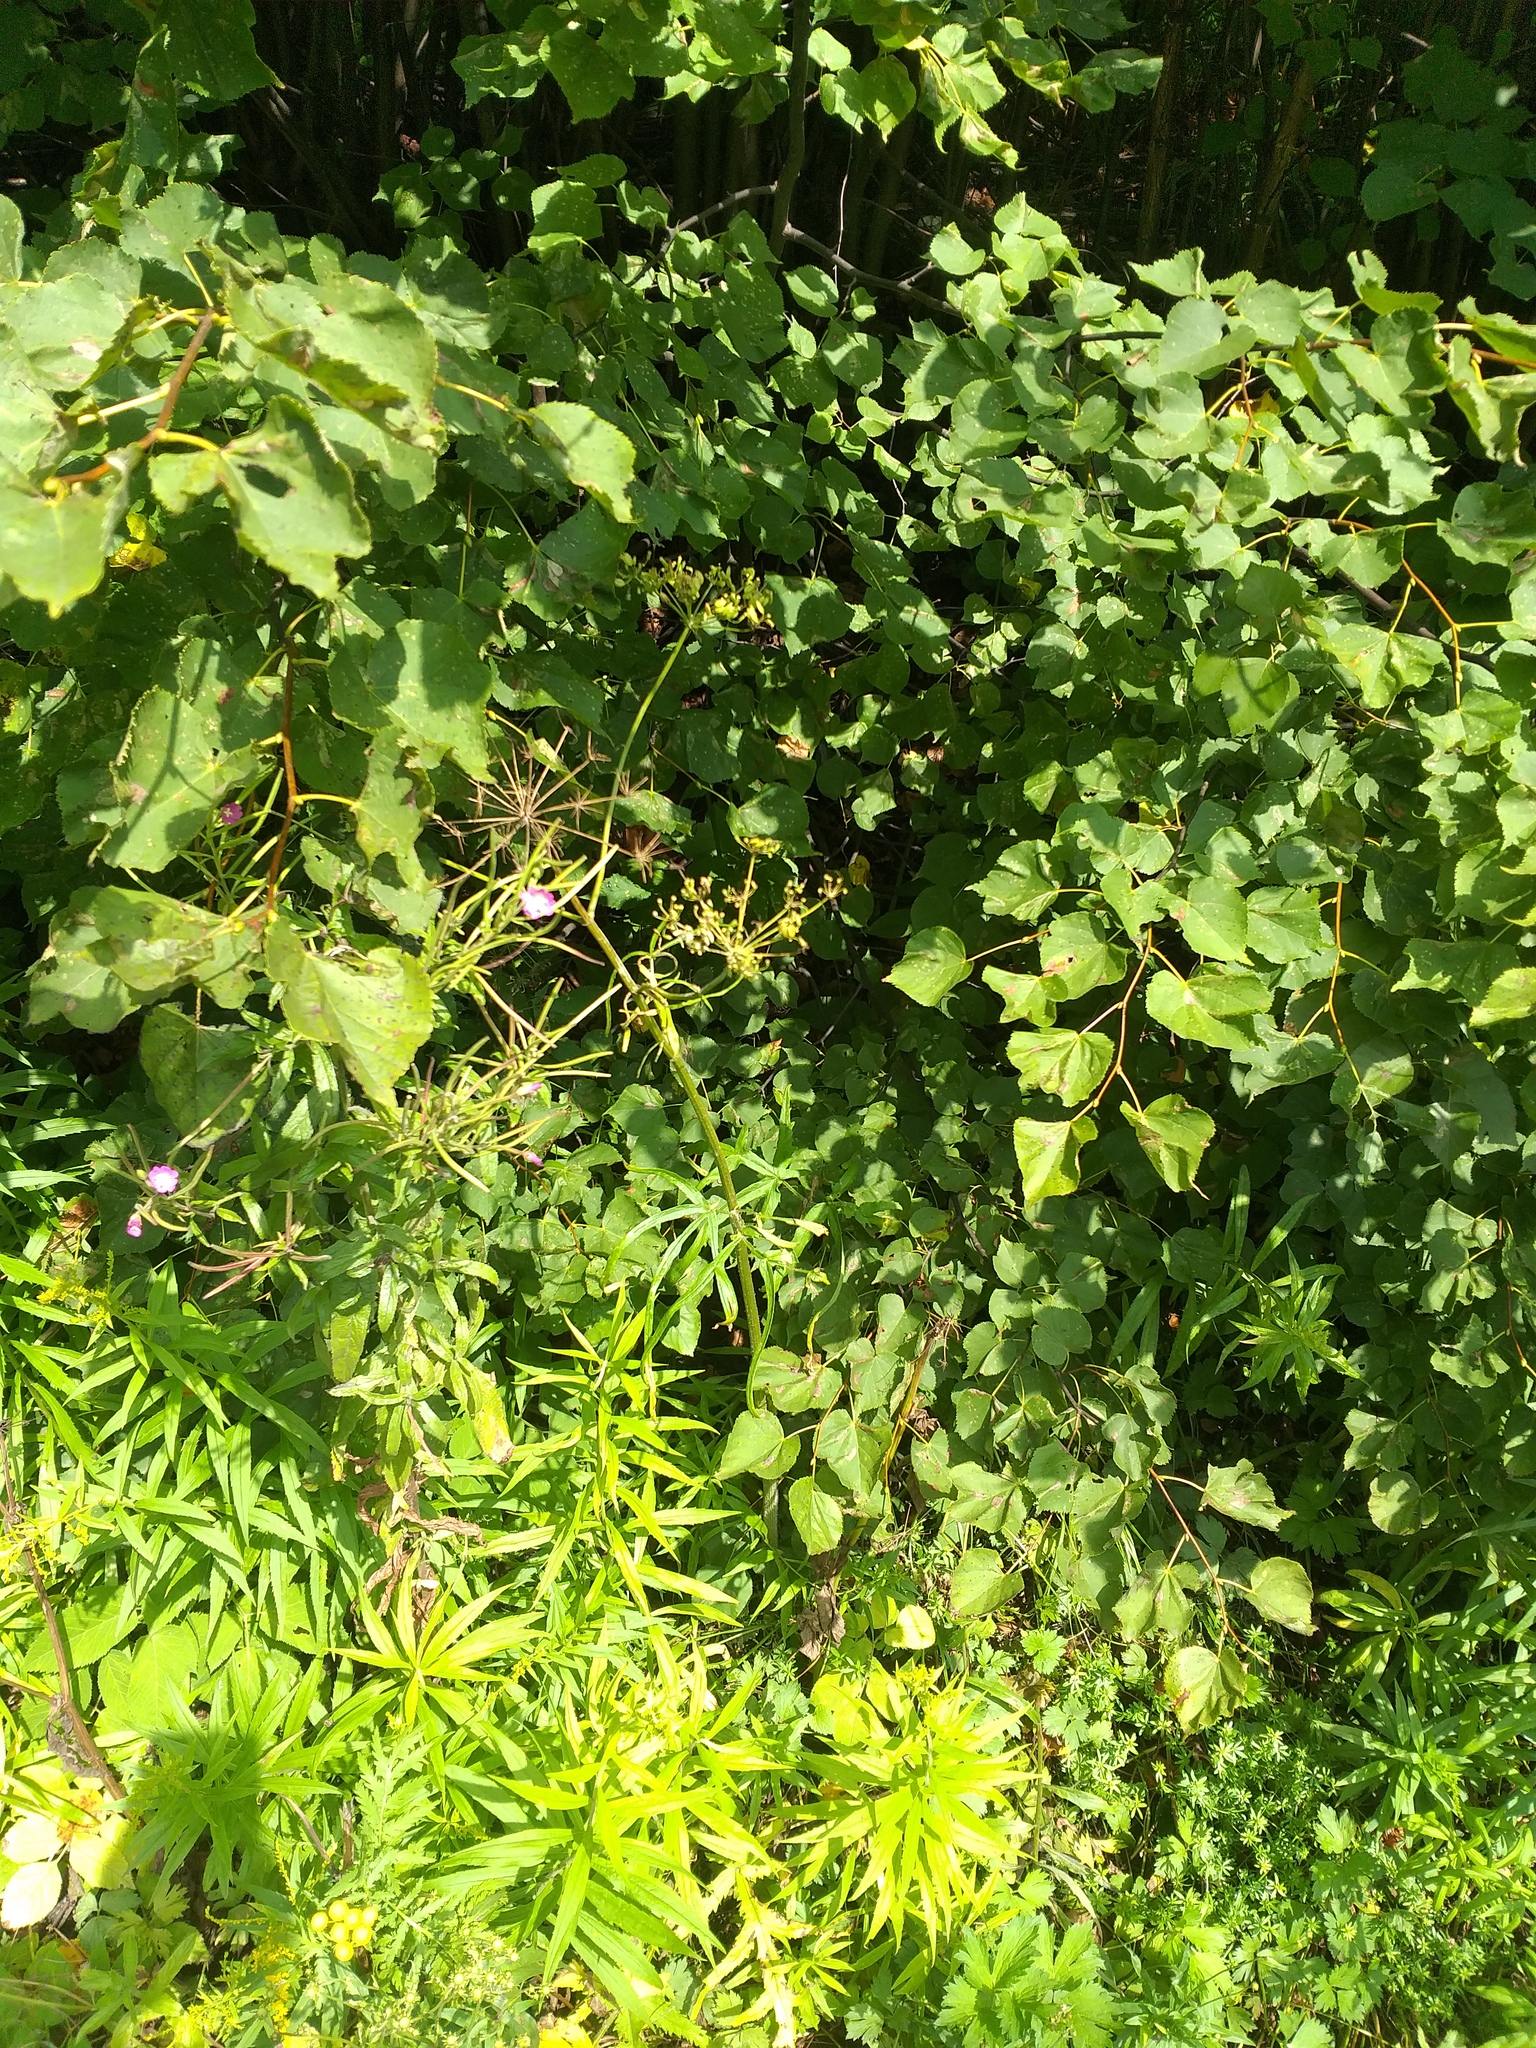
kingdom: Plantae
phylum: Tracheophyta
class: Magnoliopsida
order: Apiales
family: Apiaceae
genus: Heracleum
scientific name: Heracleum sphondylium
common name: Hogweed
